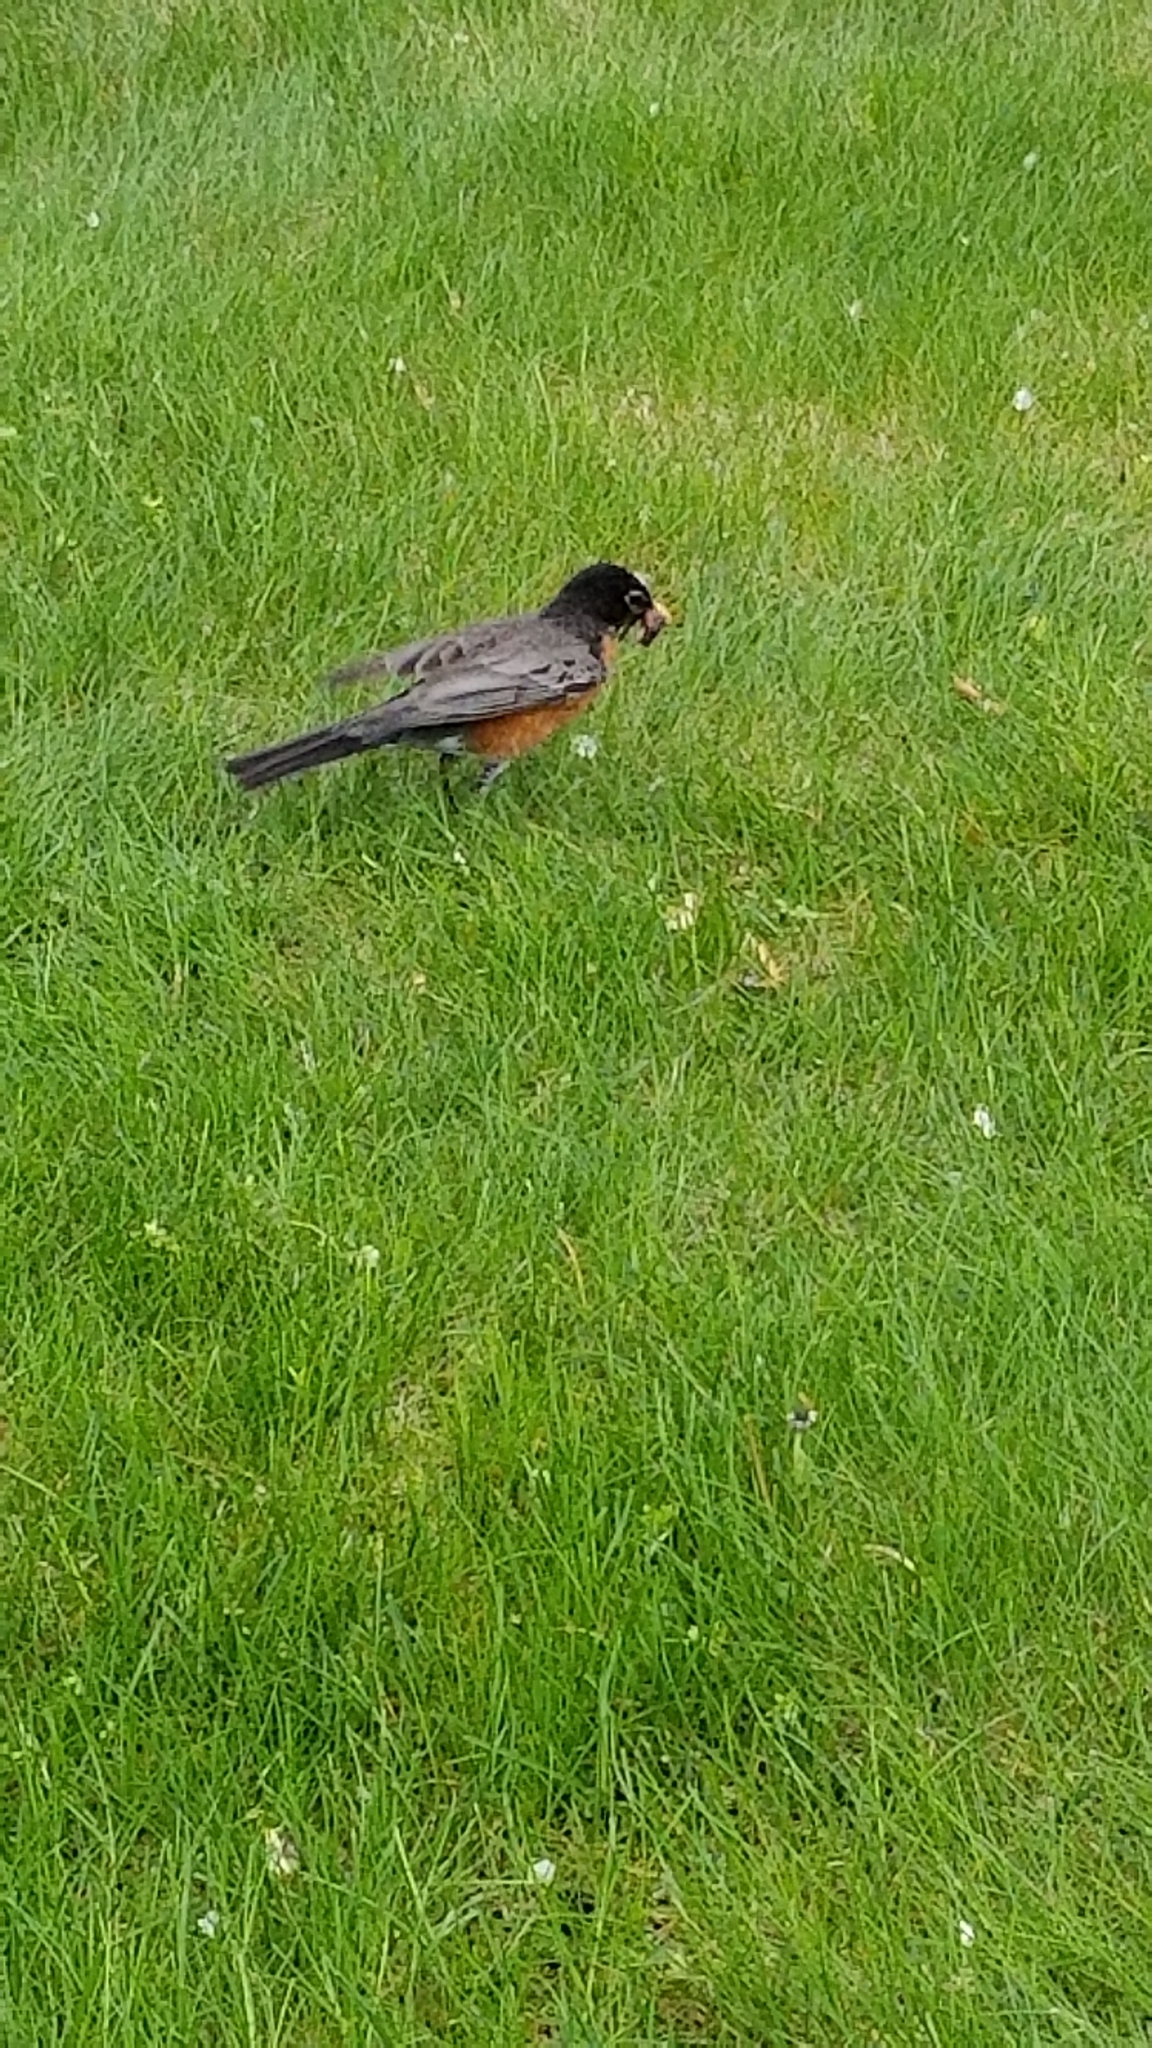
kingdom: Animalia
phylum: Chordata
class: Aves
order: Passeriformes
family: Turdidae
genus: Turdus
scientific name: Turdus migratorius
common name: American robin
